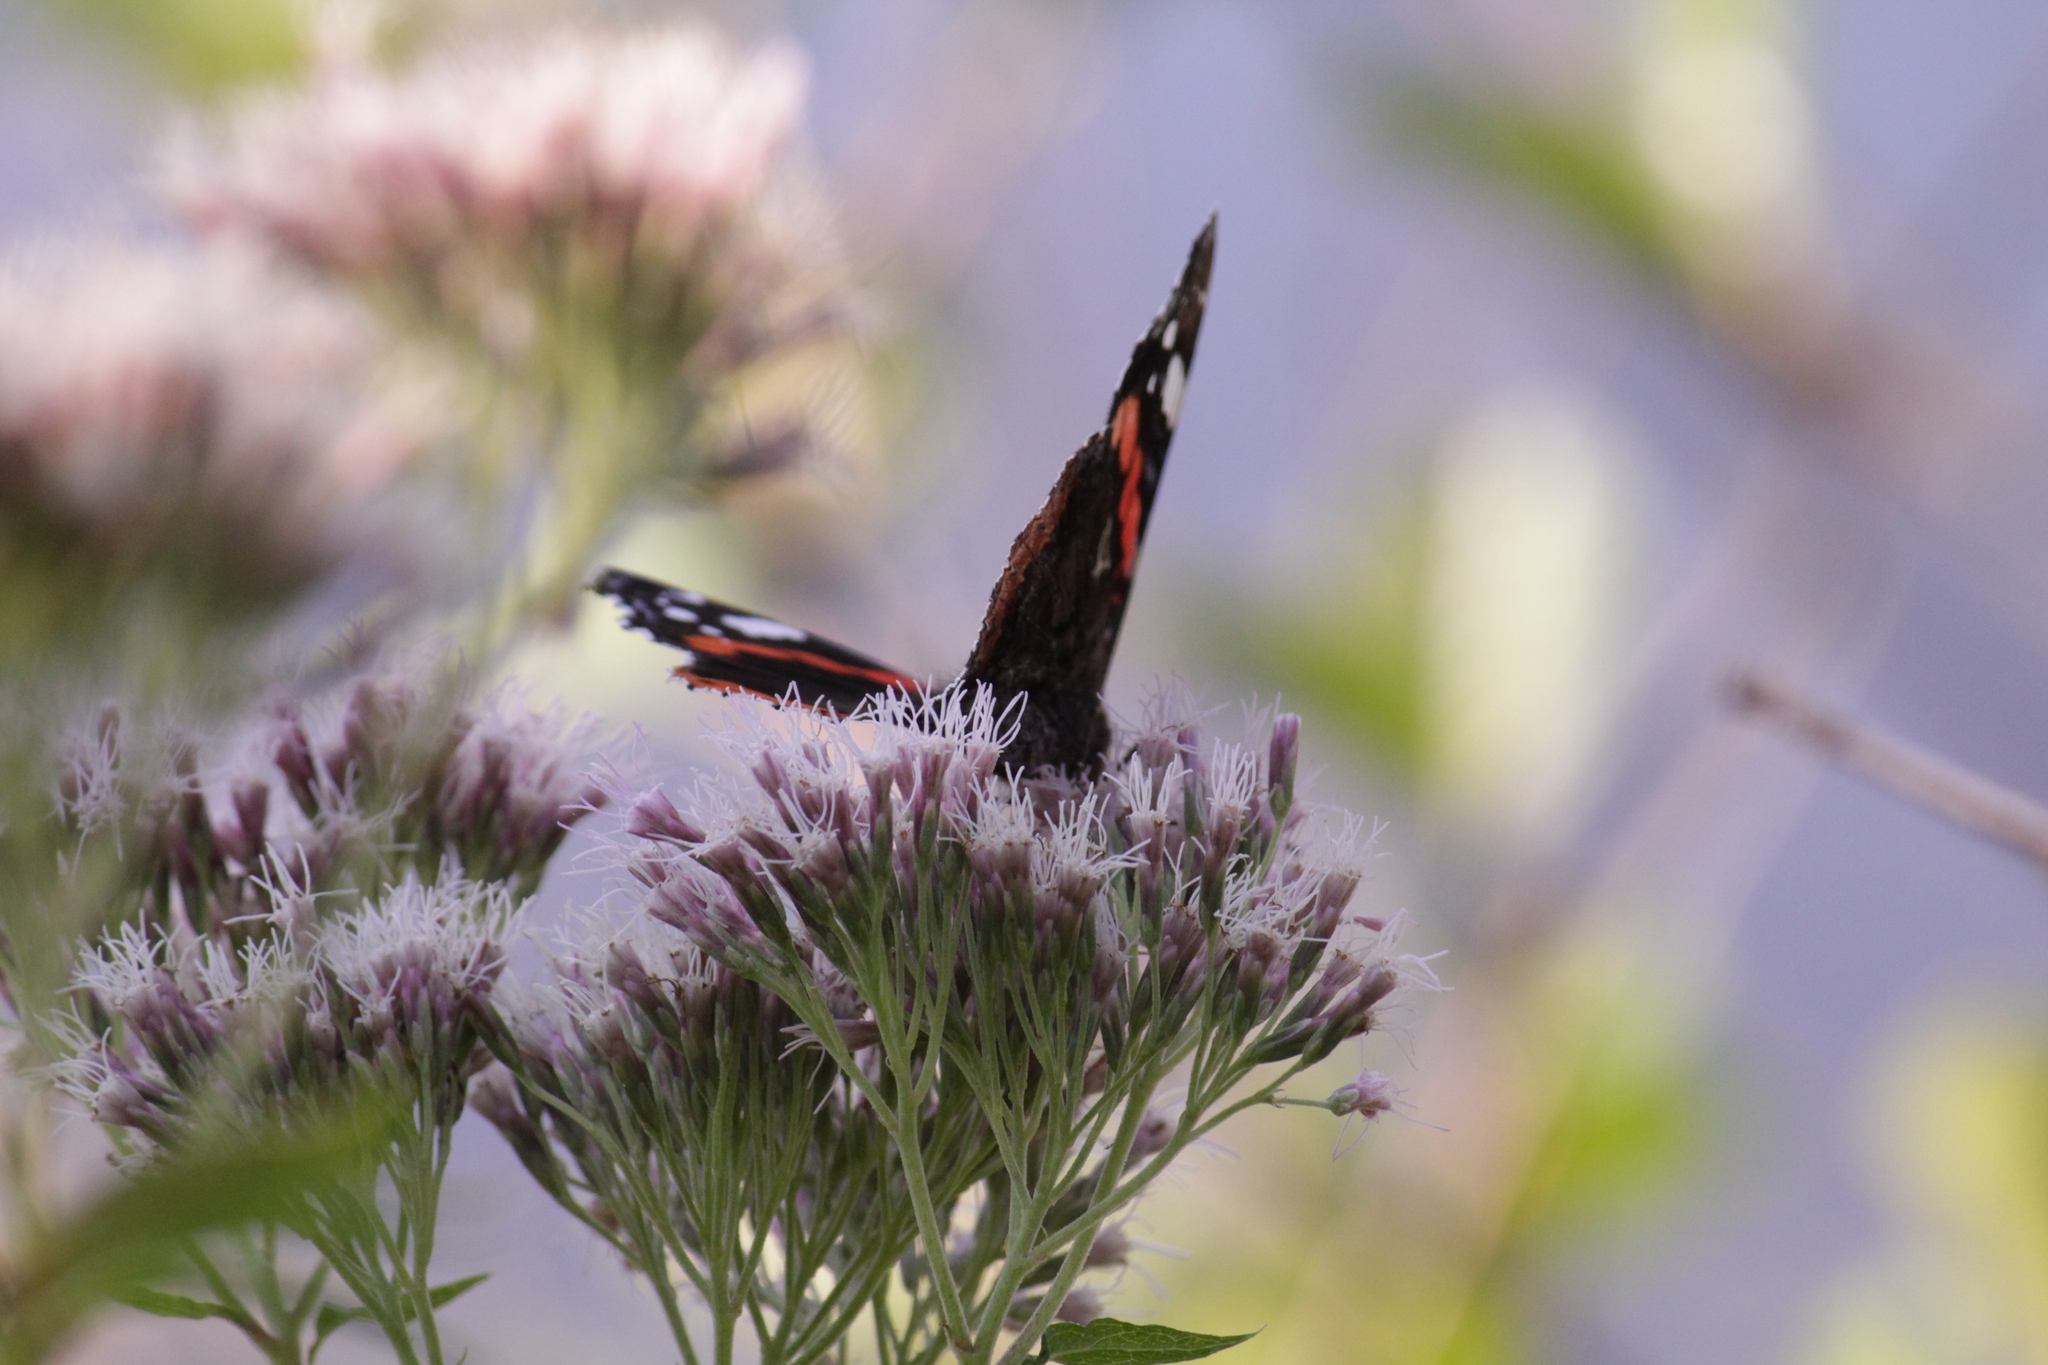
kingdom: Animalia
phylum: Arthropoda
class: Insecta
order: Lepidoptera
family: Nymphalidae
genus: Vanessa
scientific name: Vanessa atalanta
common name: Red admiral
